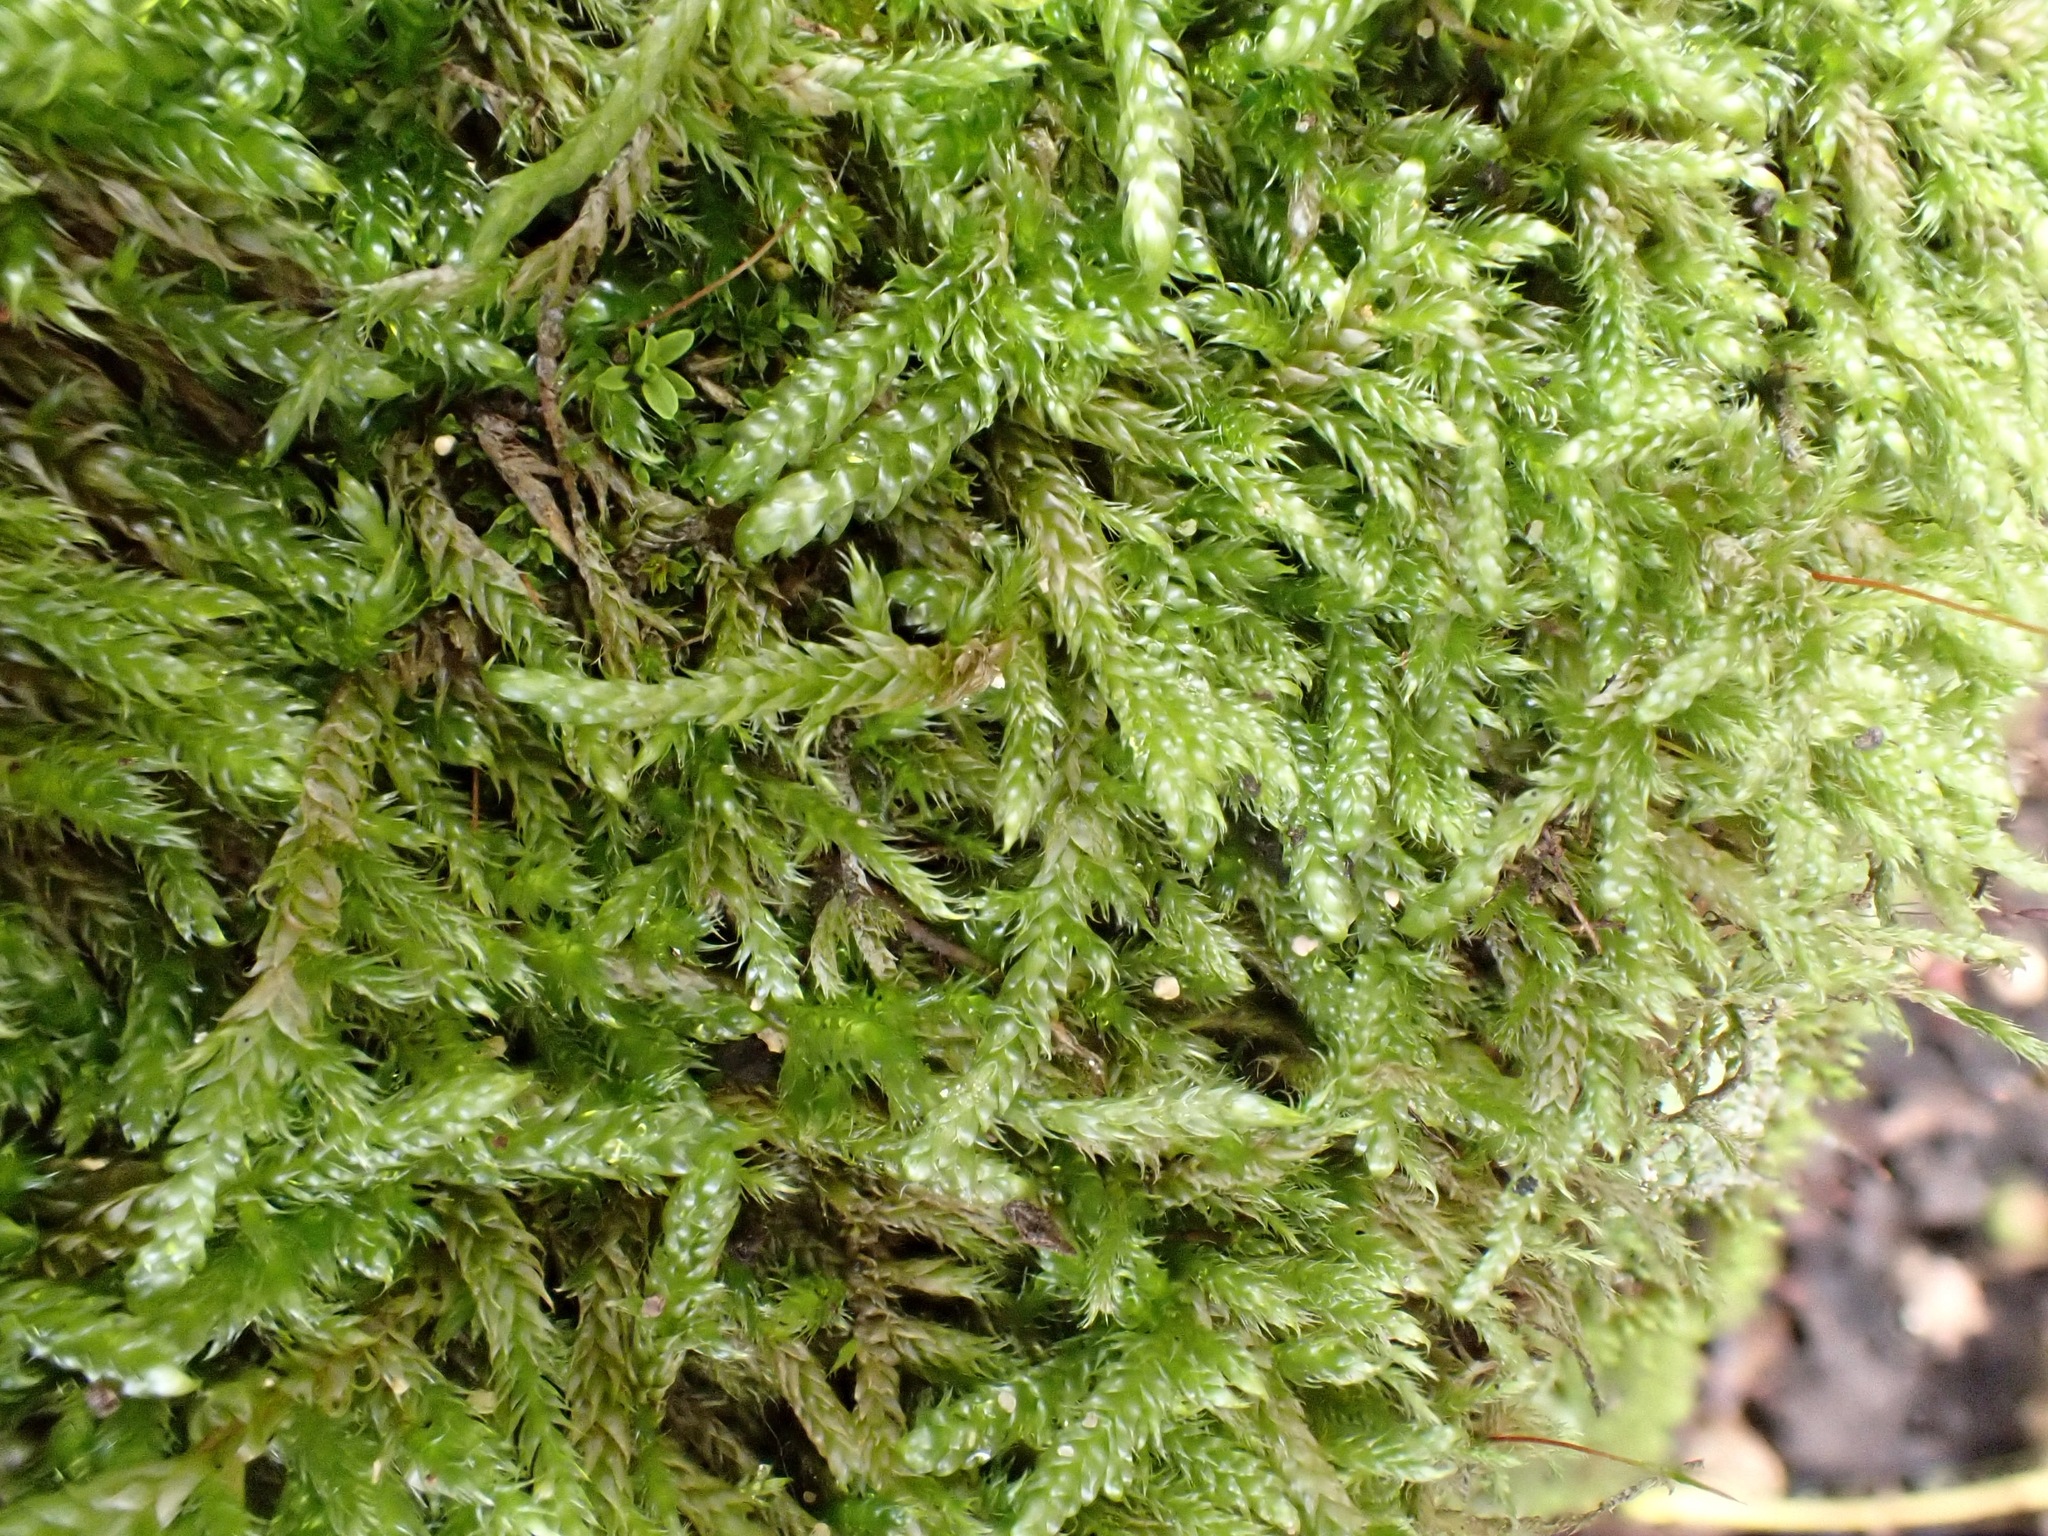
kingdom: Plantae
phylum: Bryophyta
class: Bryopsida
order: Hypnales
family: Hypnaceae
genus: Hypnum
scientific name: Hypnum cupressiforme
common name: Cypress-leaved plait-moss
